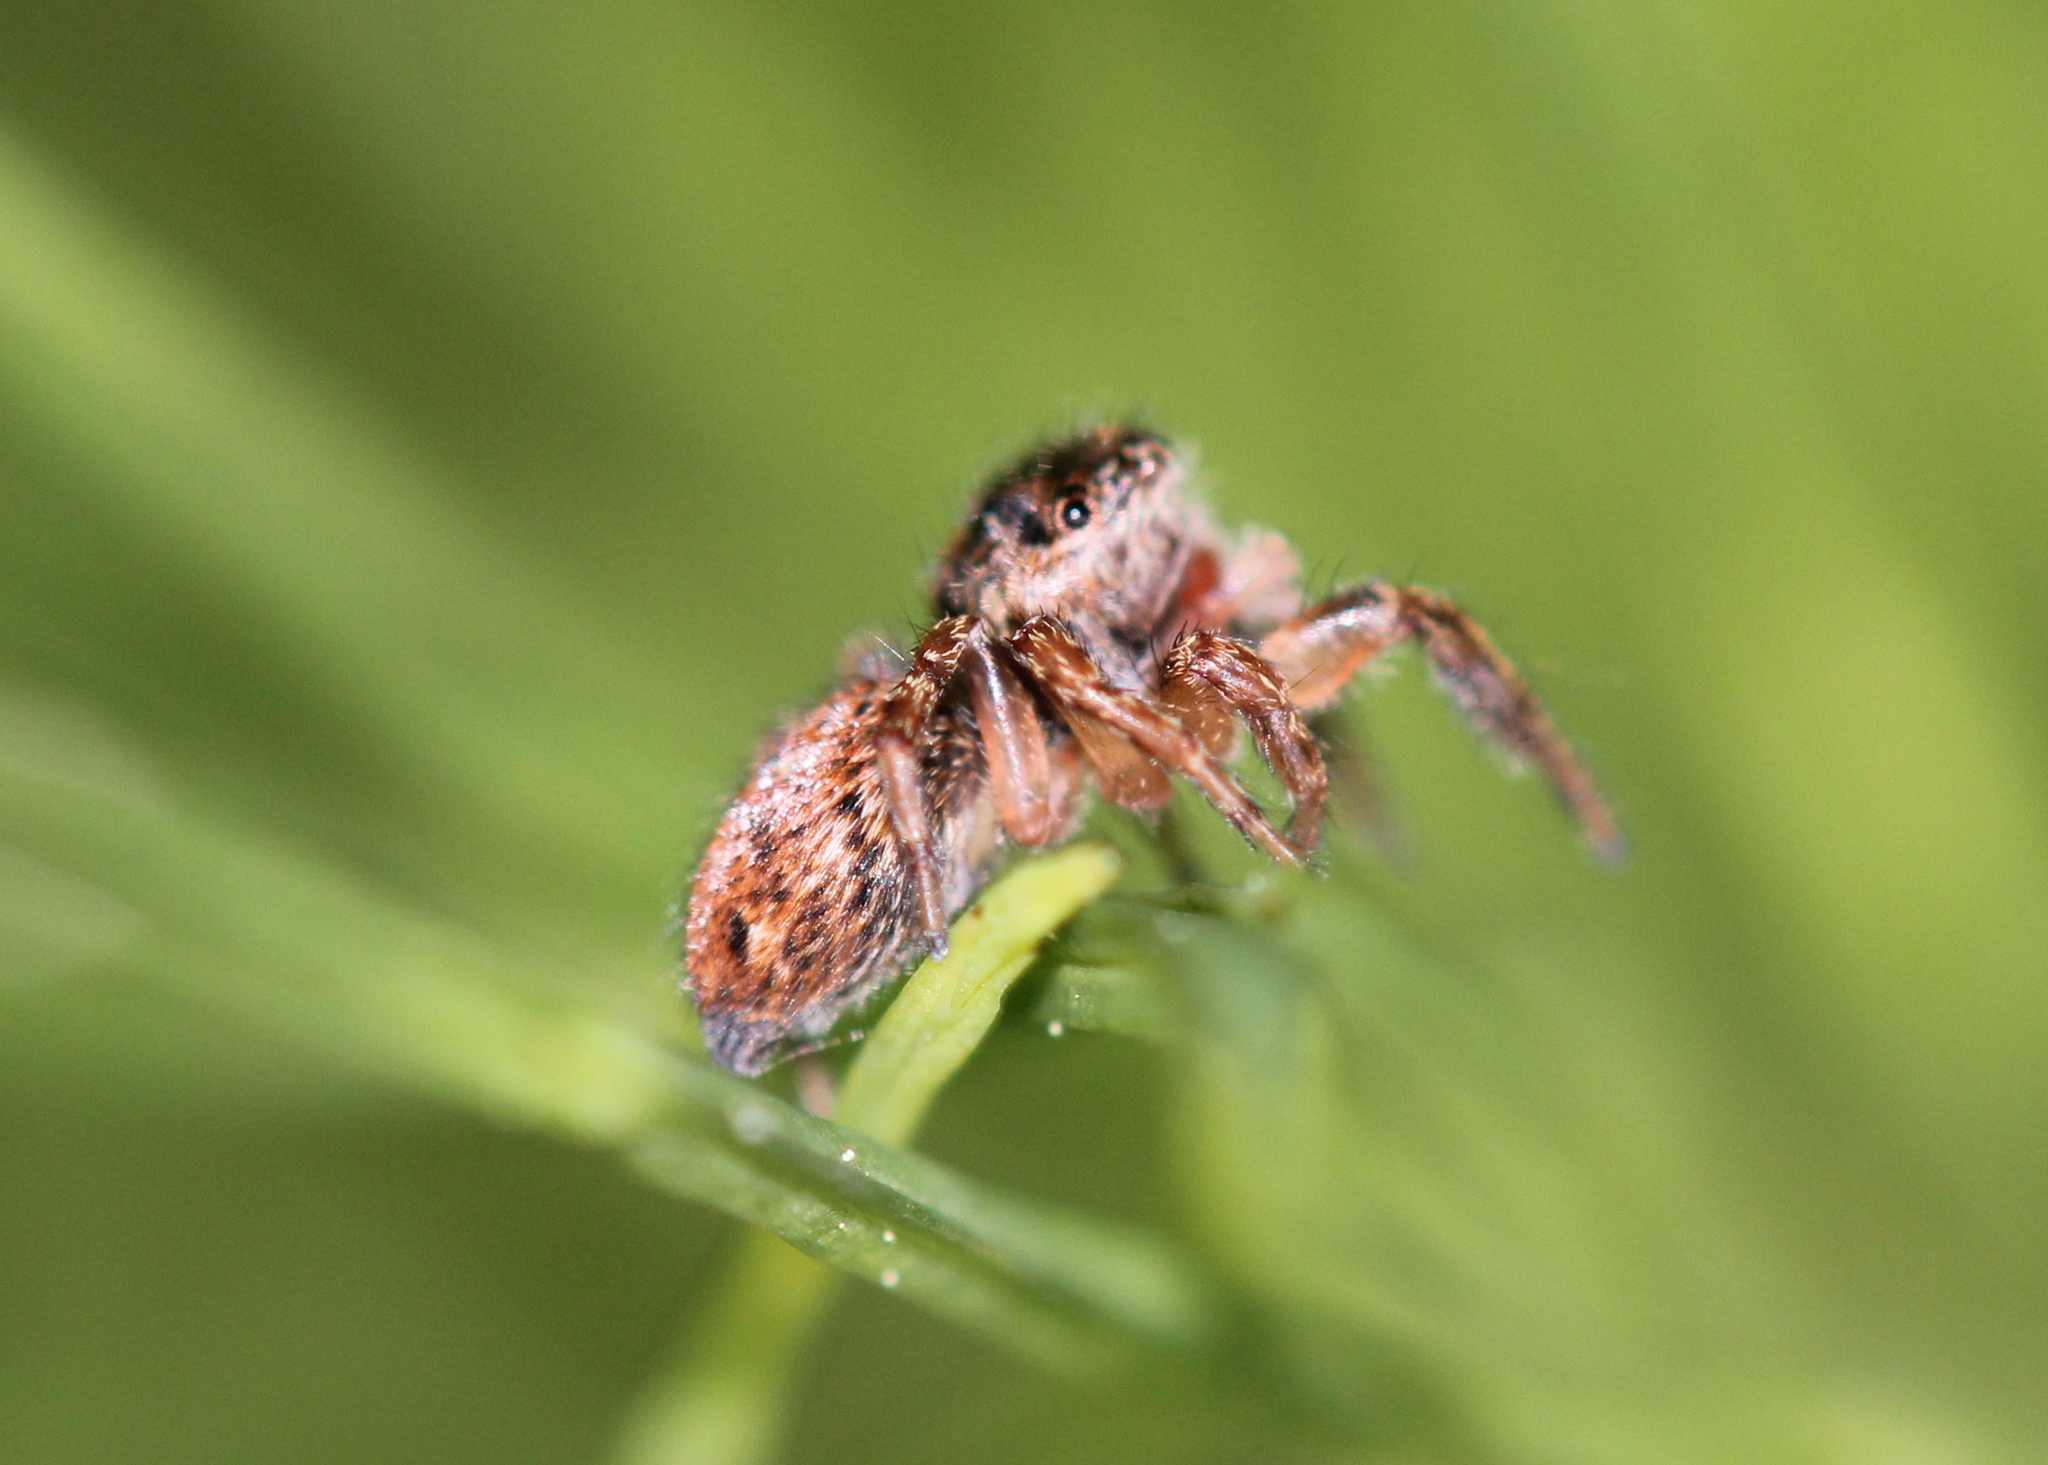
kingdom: Animalia
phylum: Arthropoda
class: Arachnida
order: Araneae
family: Salticidae
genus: Evarcha
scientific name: Evarcha hoyi
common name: Hoy's jumping spider
